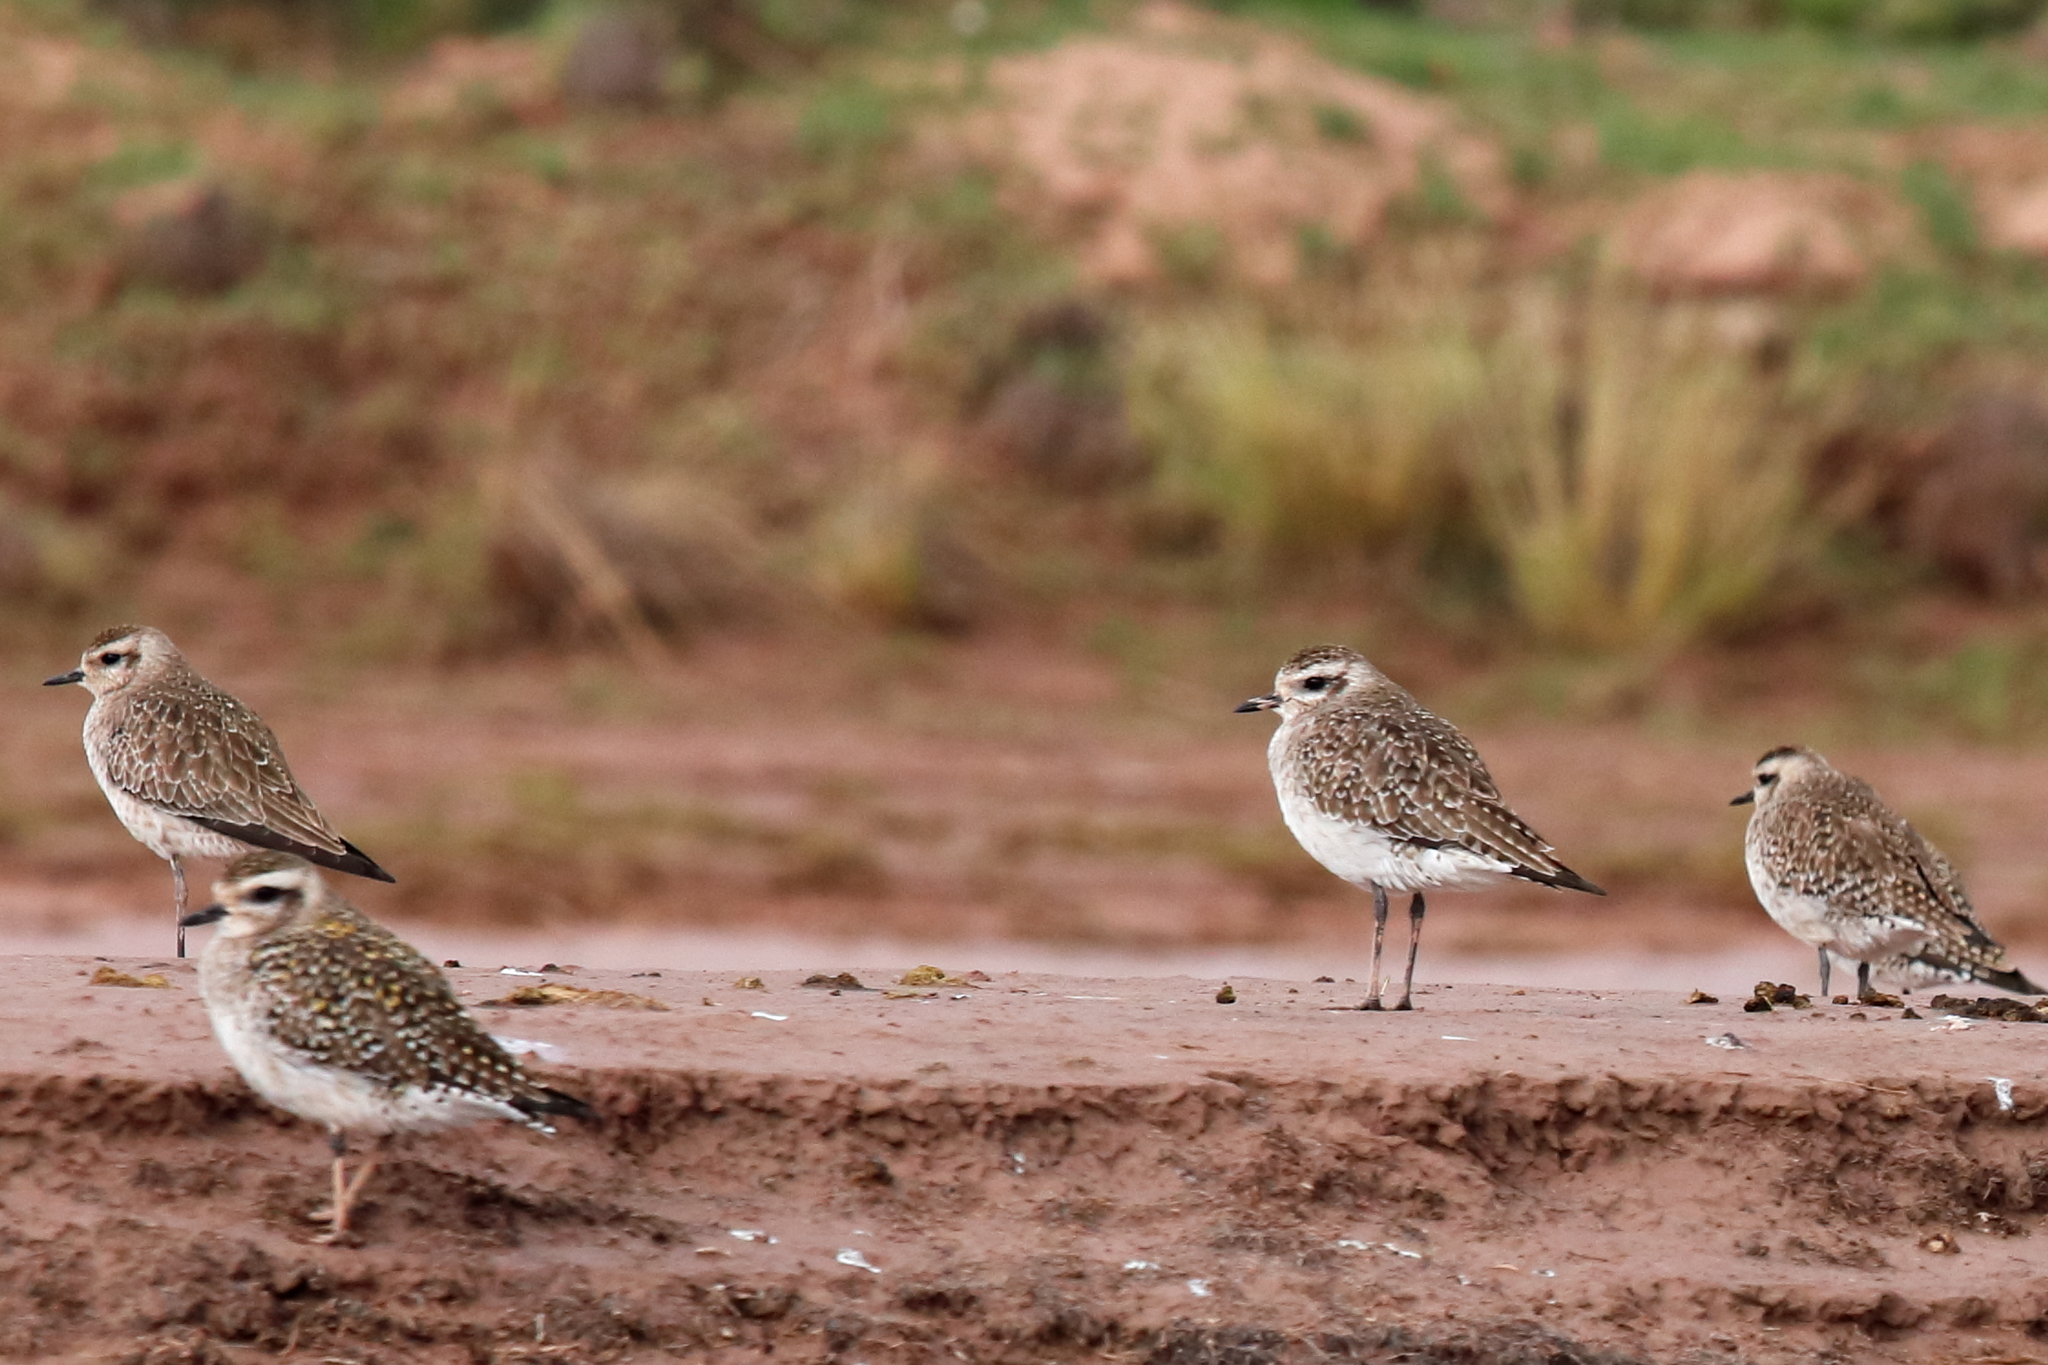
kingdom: Animalia
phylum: Chordata
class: Aves
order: Charadriiformes
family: Charadriidae
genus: Pluvialis
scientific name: Pluvialis dominica
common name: American golden plover
